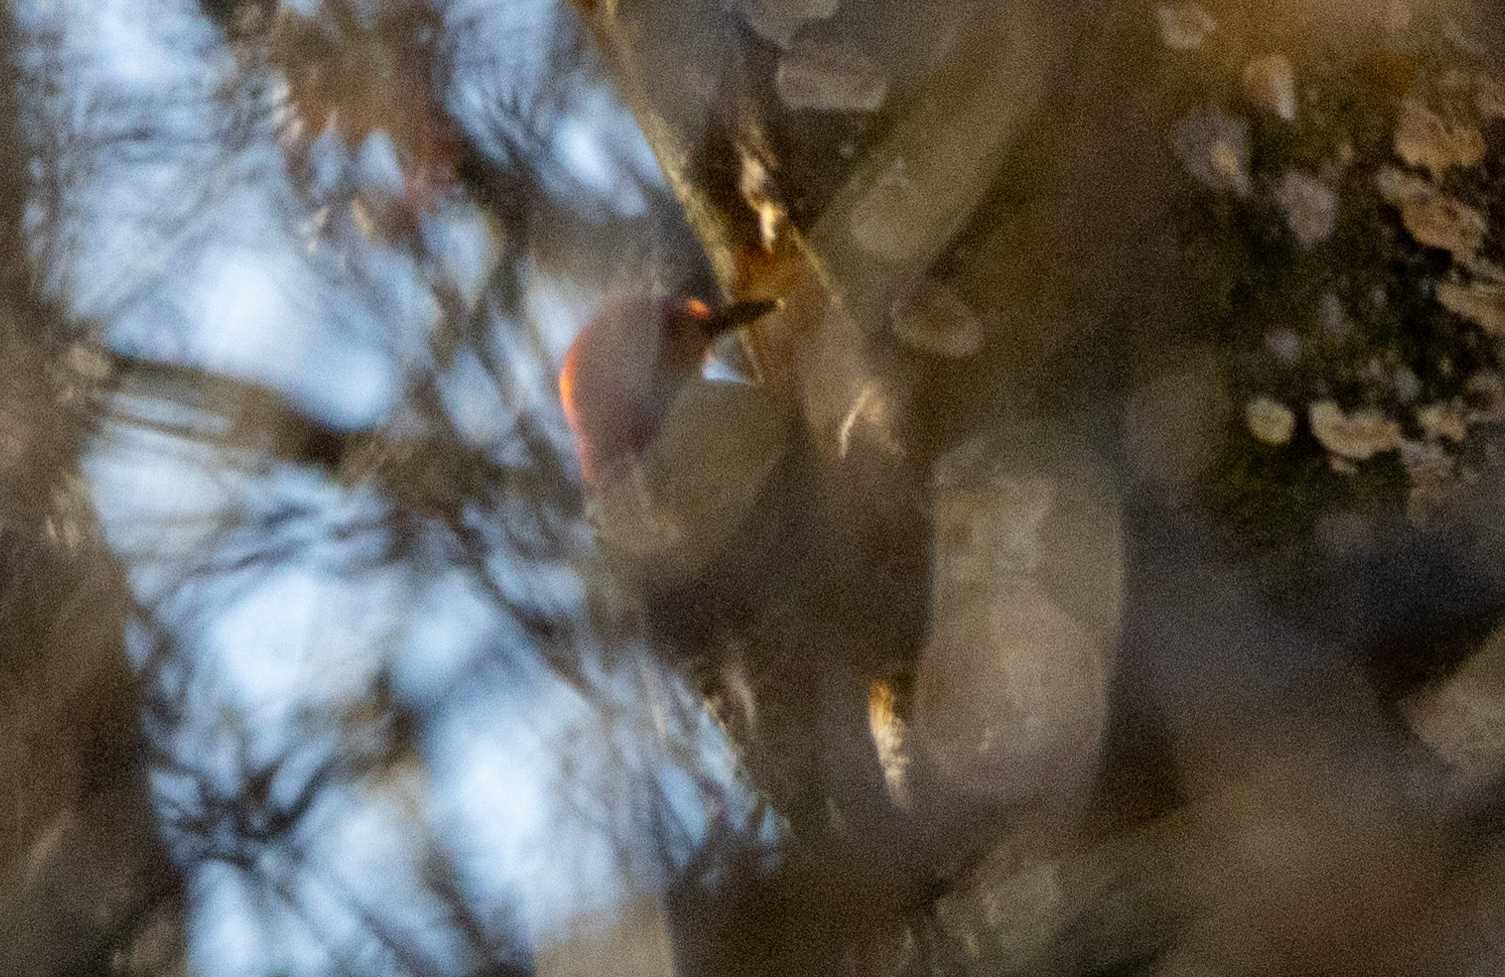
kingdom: Animalia
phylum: Chordata
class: Aves
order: Piciformes
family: Picidae
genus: Melanerpes
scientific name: Melanerpes carolinus
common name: Red-bellied woodpecker
